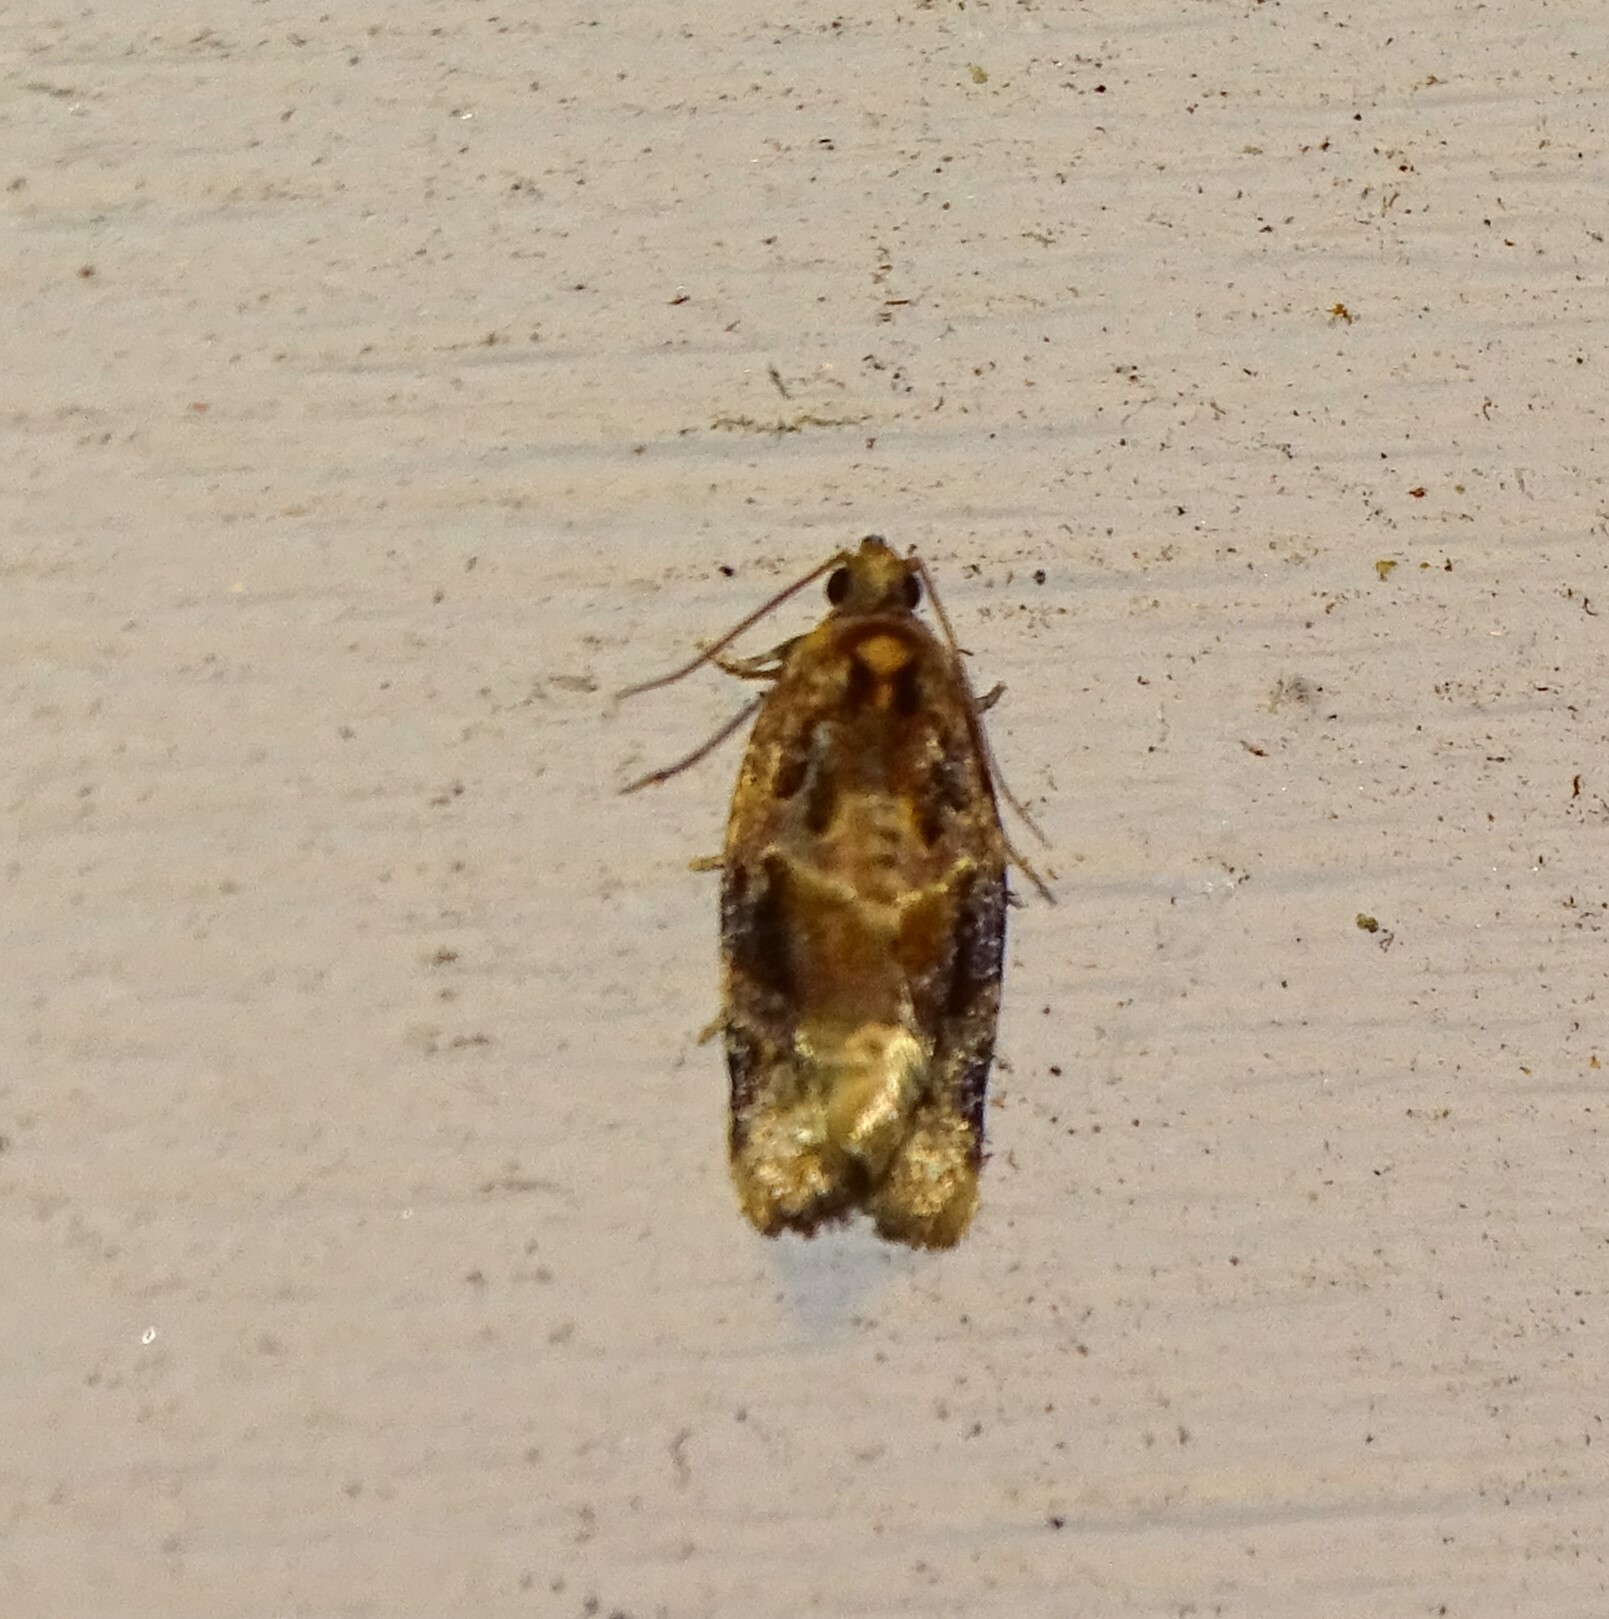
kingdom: Animalia
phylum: Arthropoda
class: Insecta
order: Lepidoptera
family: Tortricidae
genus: Argyrotaenia
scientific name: Argyrotaenia velutinana
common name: Red-banded leafroller moth
